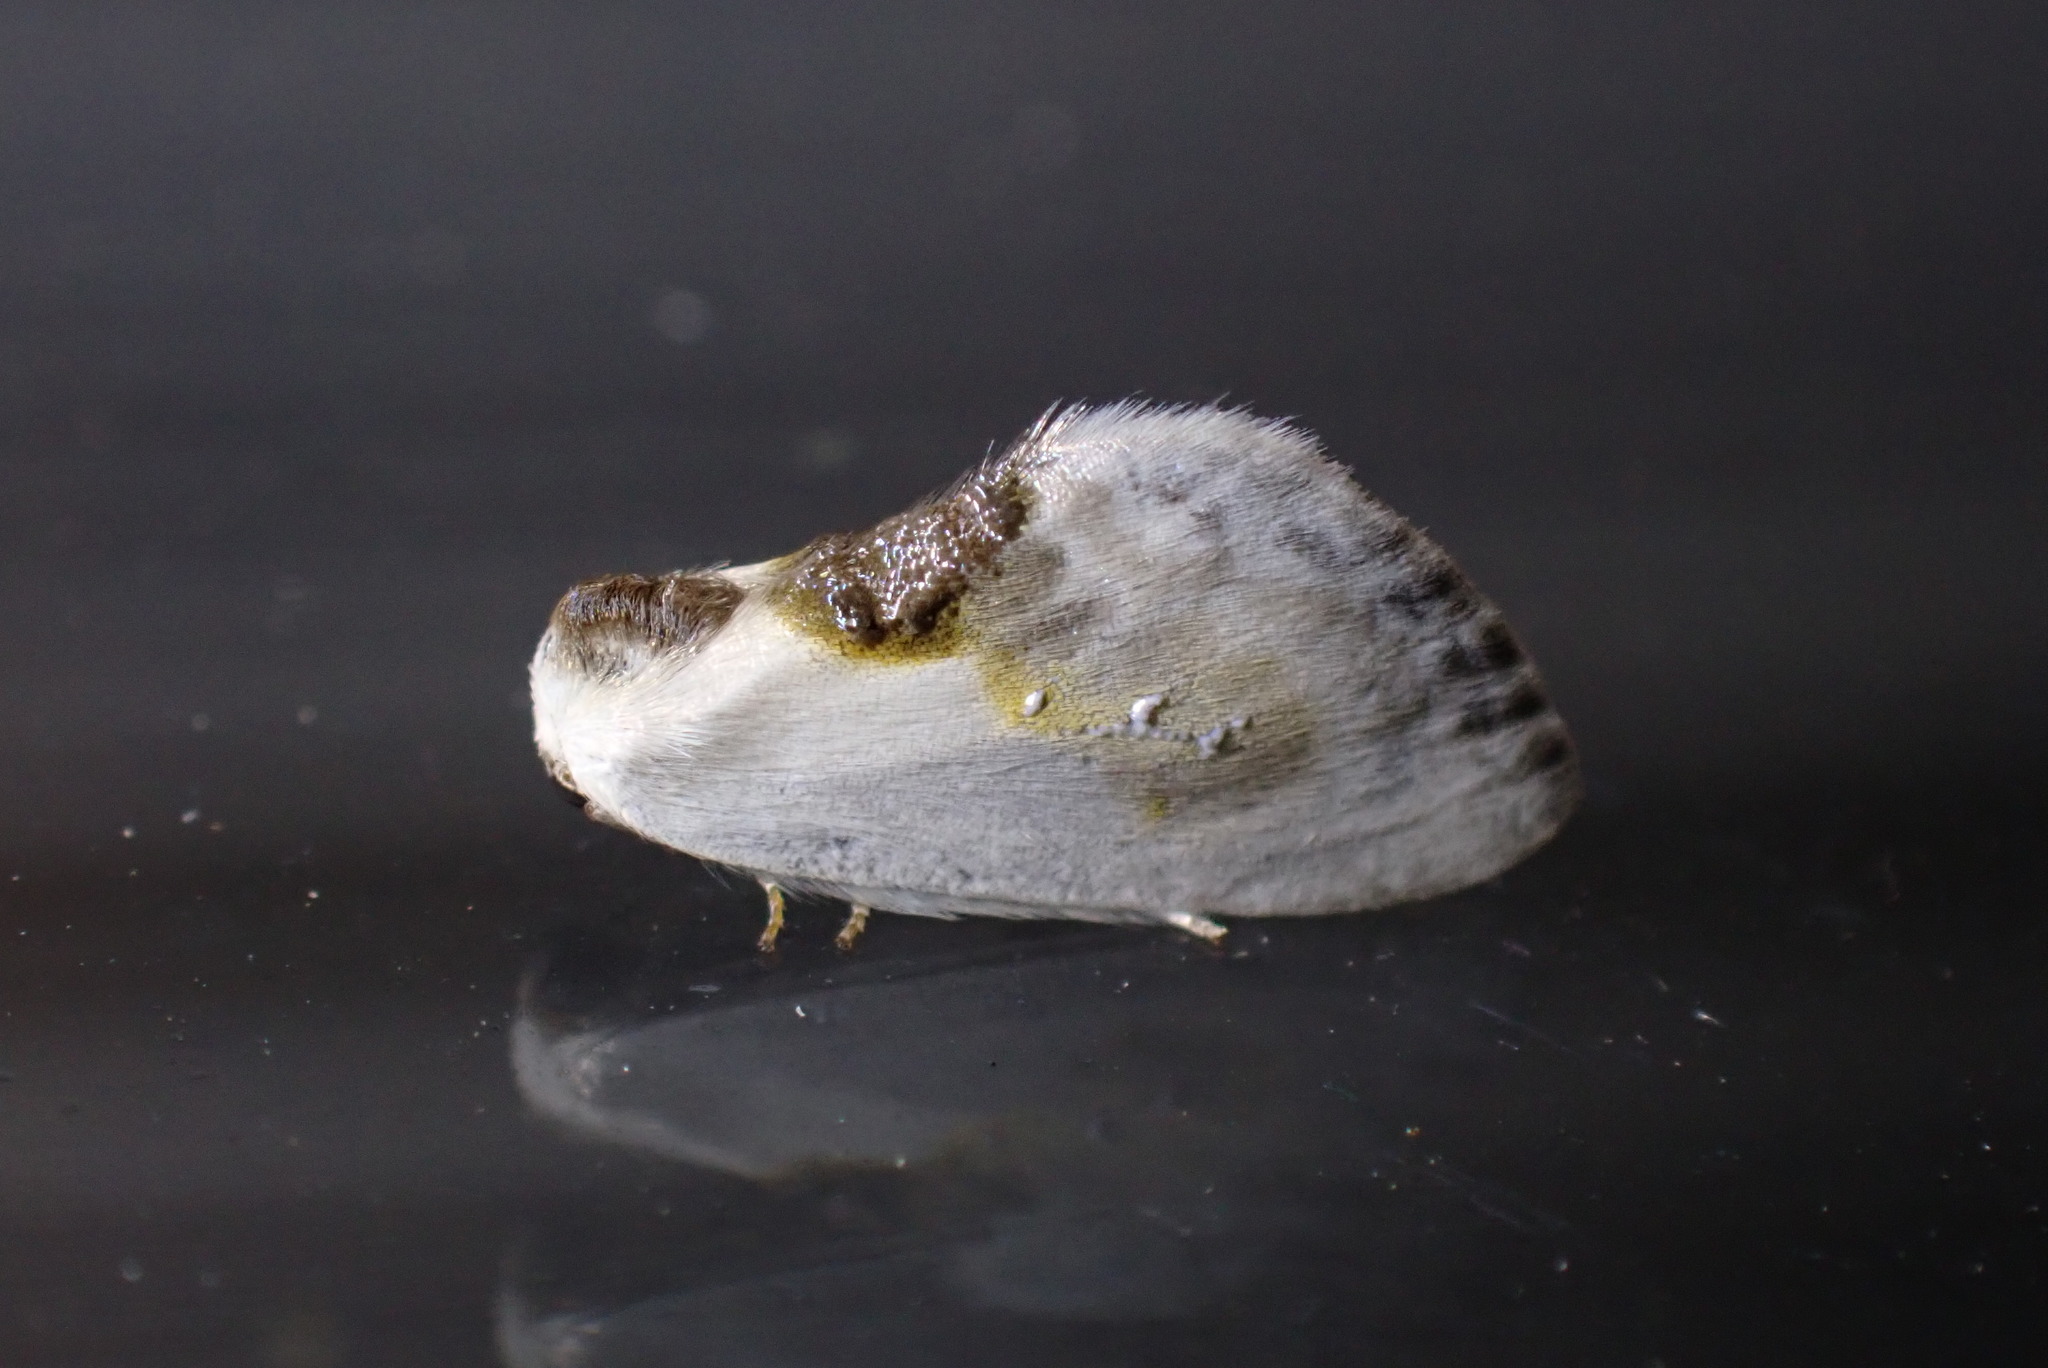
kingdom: Animalia
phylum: Arthropoda
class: Insecta
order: Lepidoptera
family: Drepanidae
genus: Cilix
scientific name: Cilix glaucata
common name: Chinese character
